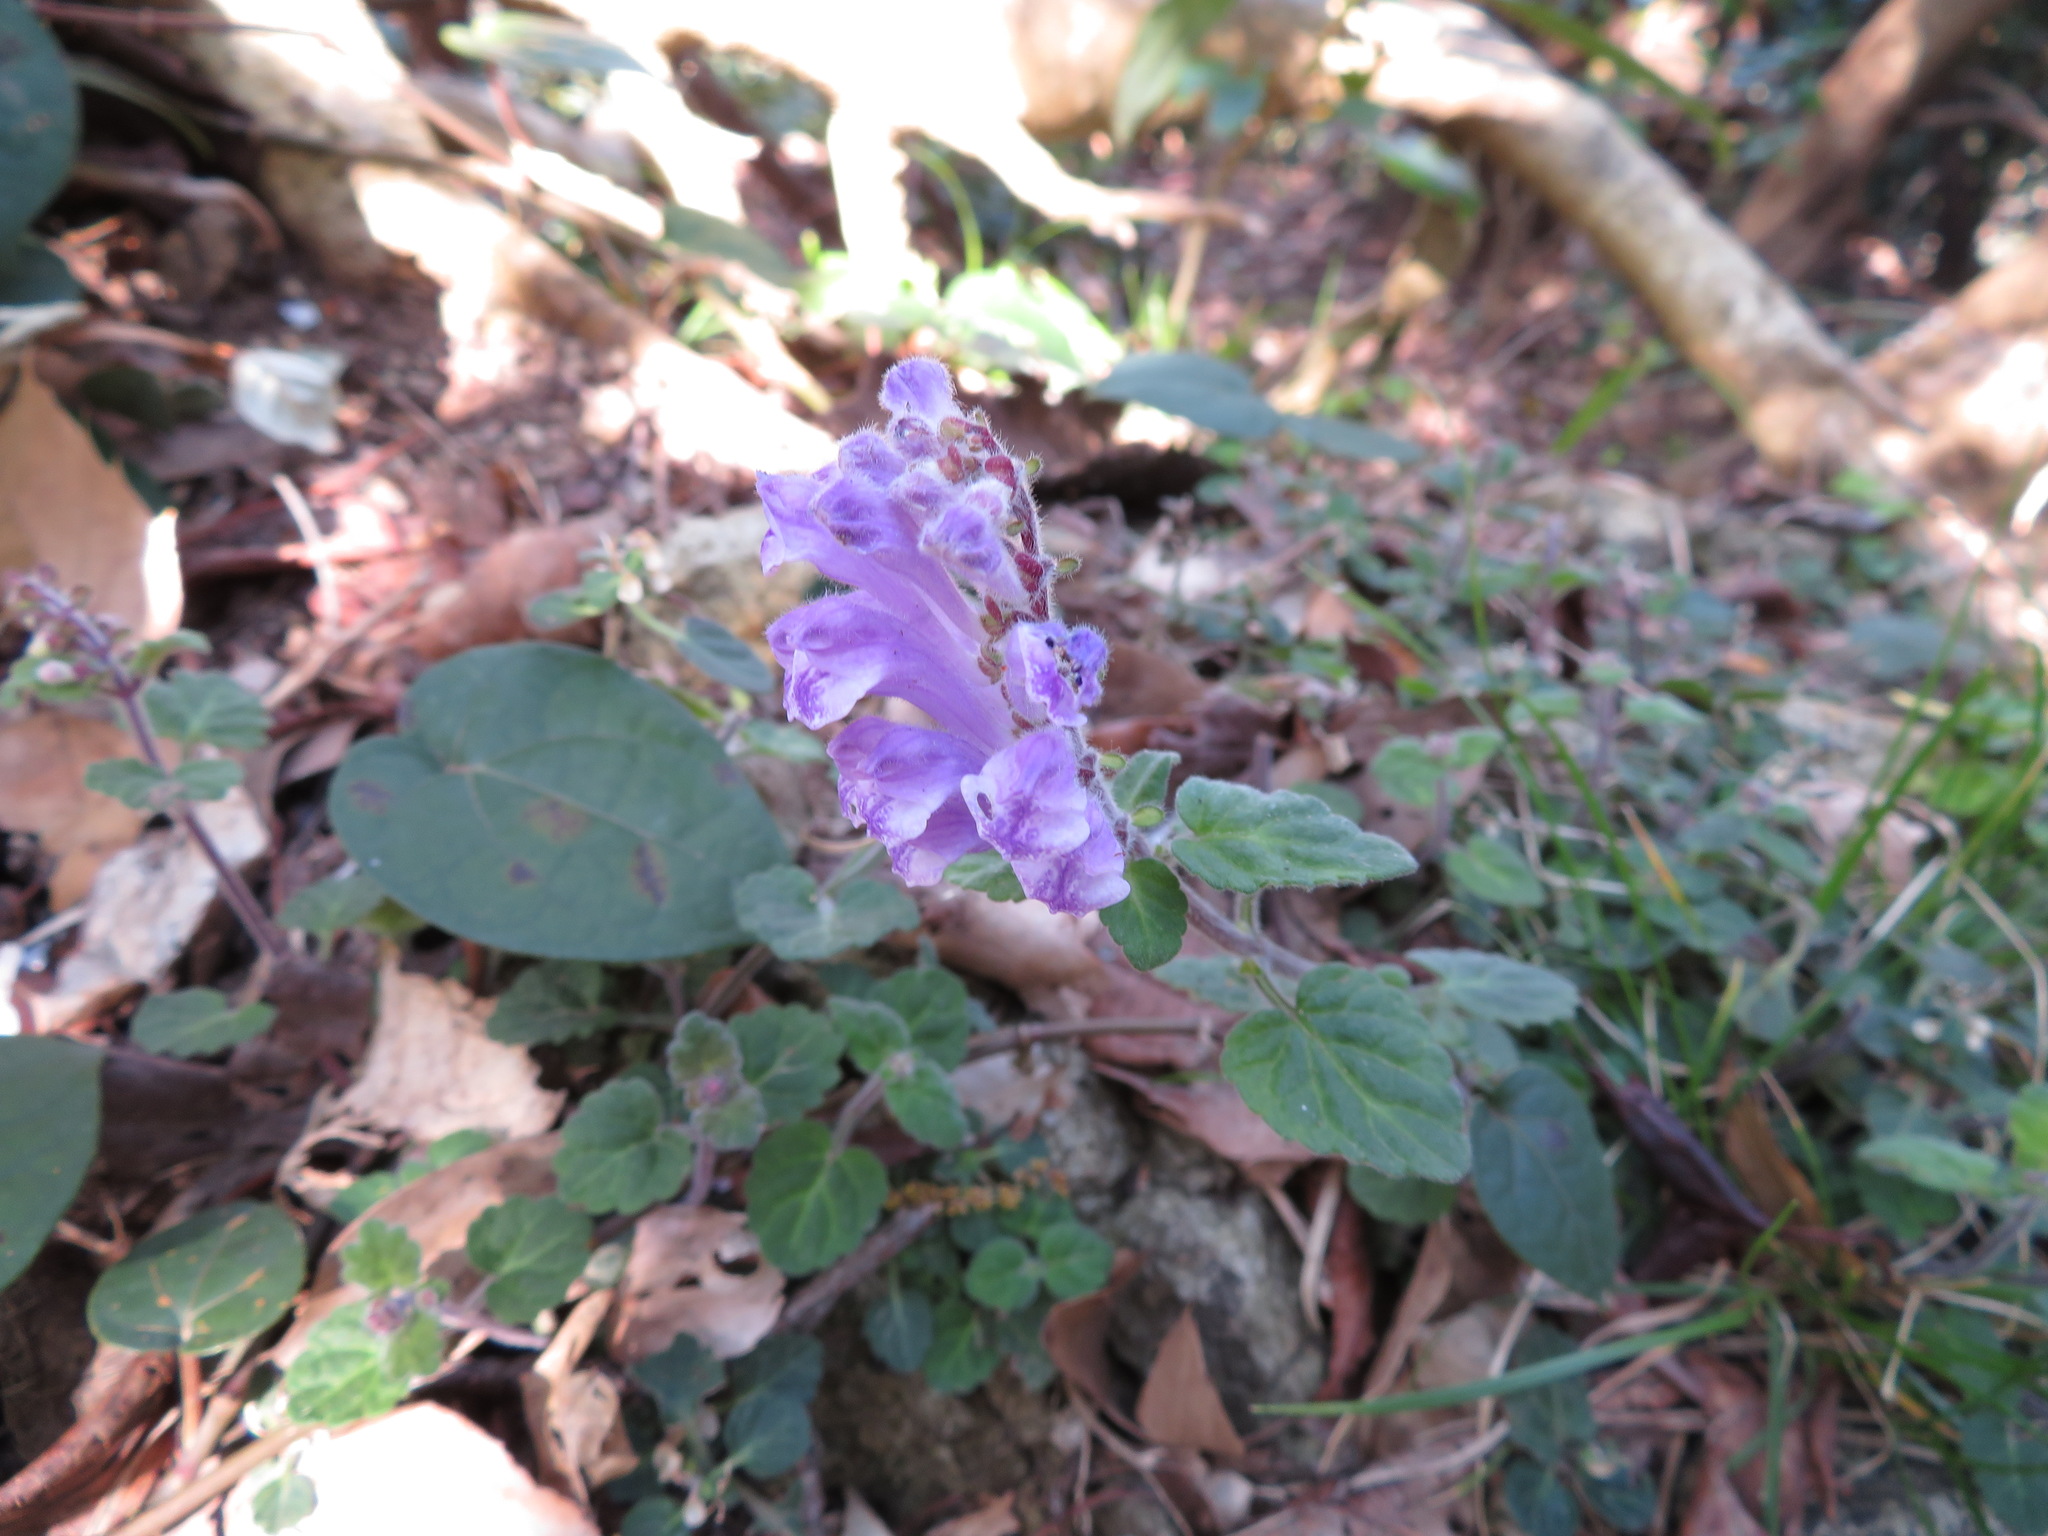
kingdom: Plantae
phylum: Tracheophyta
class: Magnoliopsida
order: Lamiales
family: Lamiaceae
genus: Scutellaria
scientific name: Scutellaria indica
